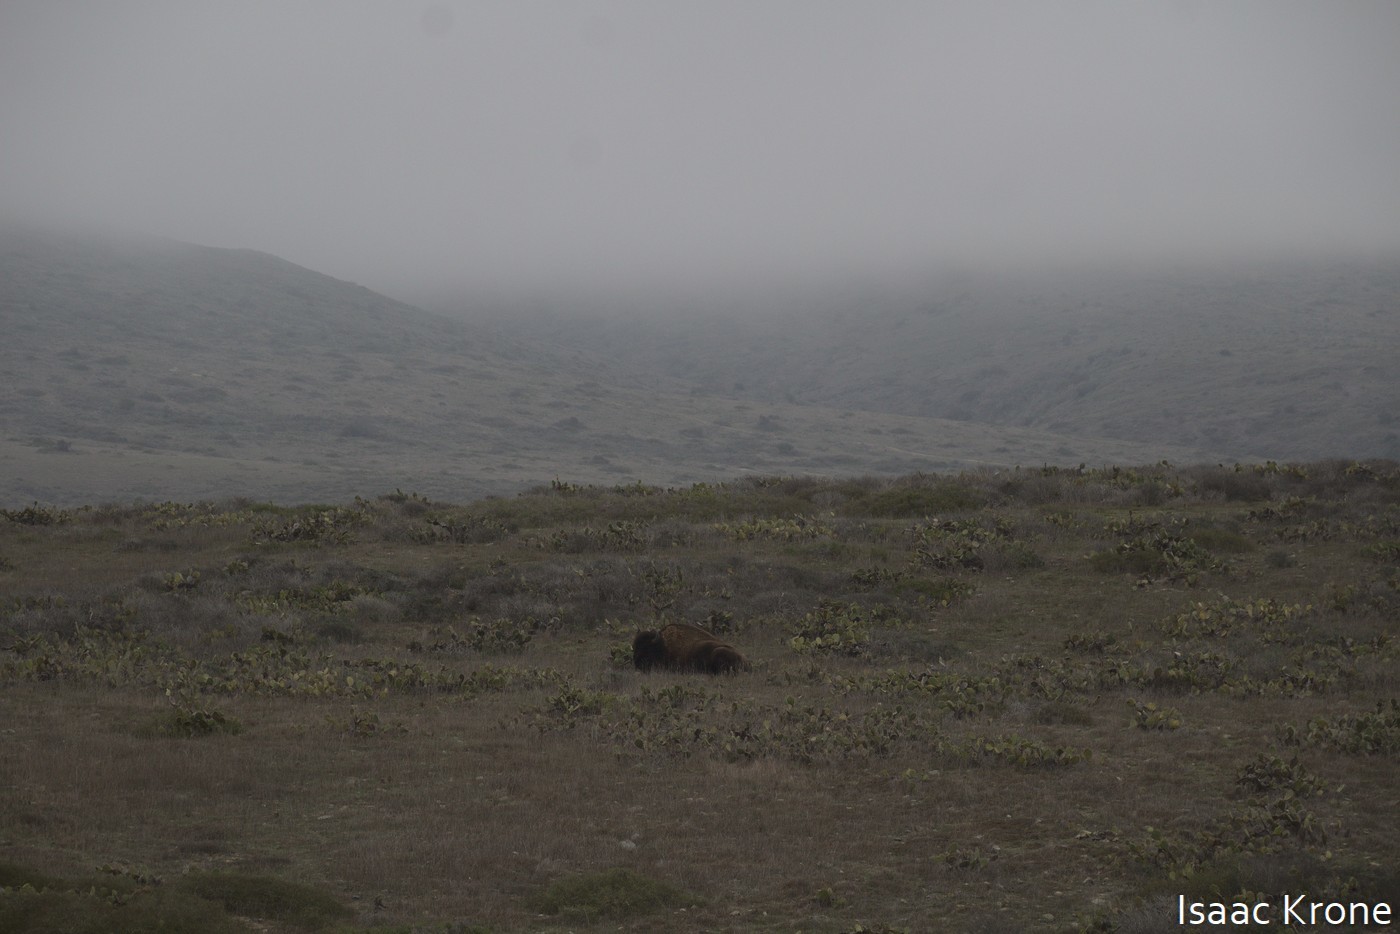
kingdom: Animalia
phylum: Chordata
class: Mammalia
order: Artiodactyla
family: Bovidae
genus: Bison
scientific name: Bison bison
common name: American bison
